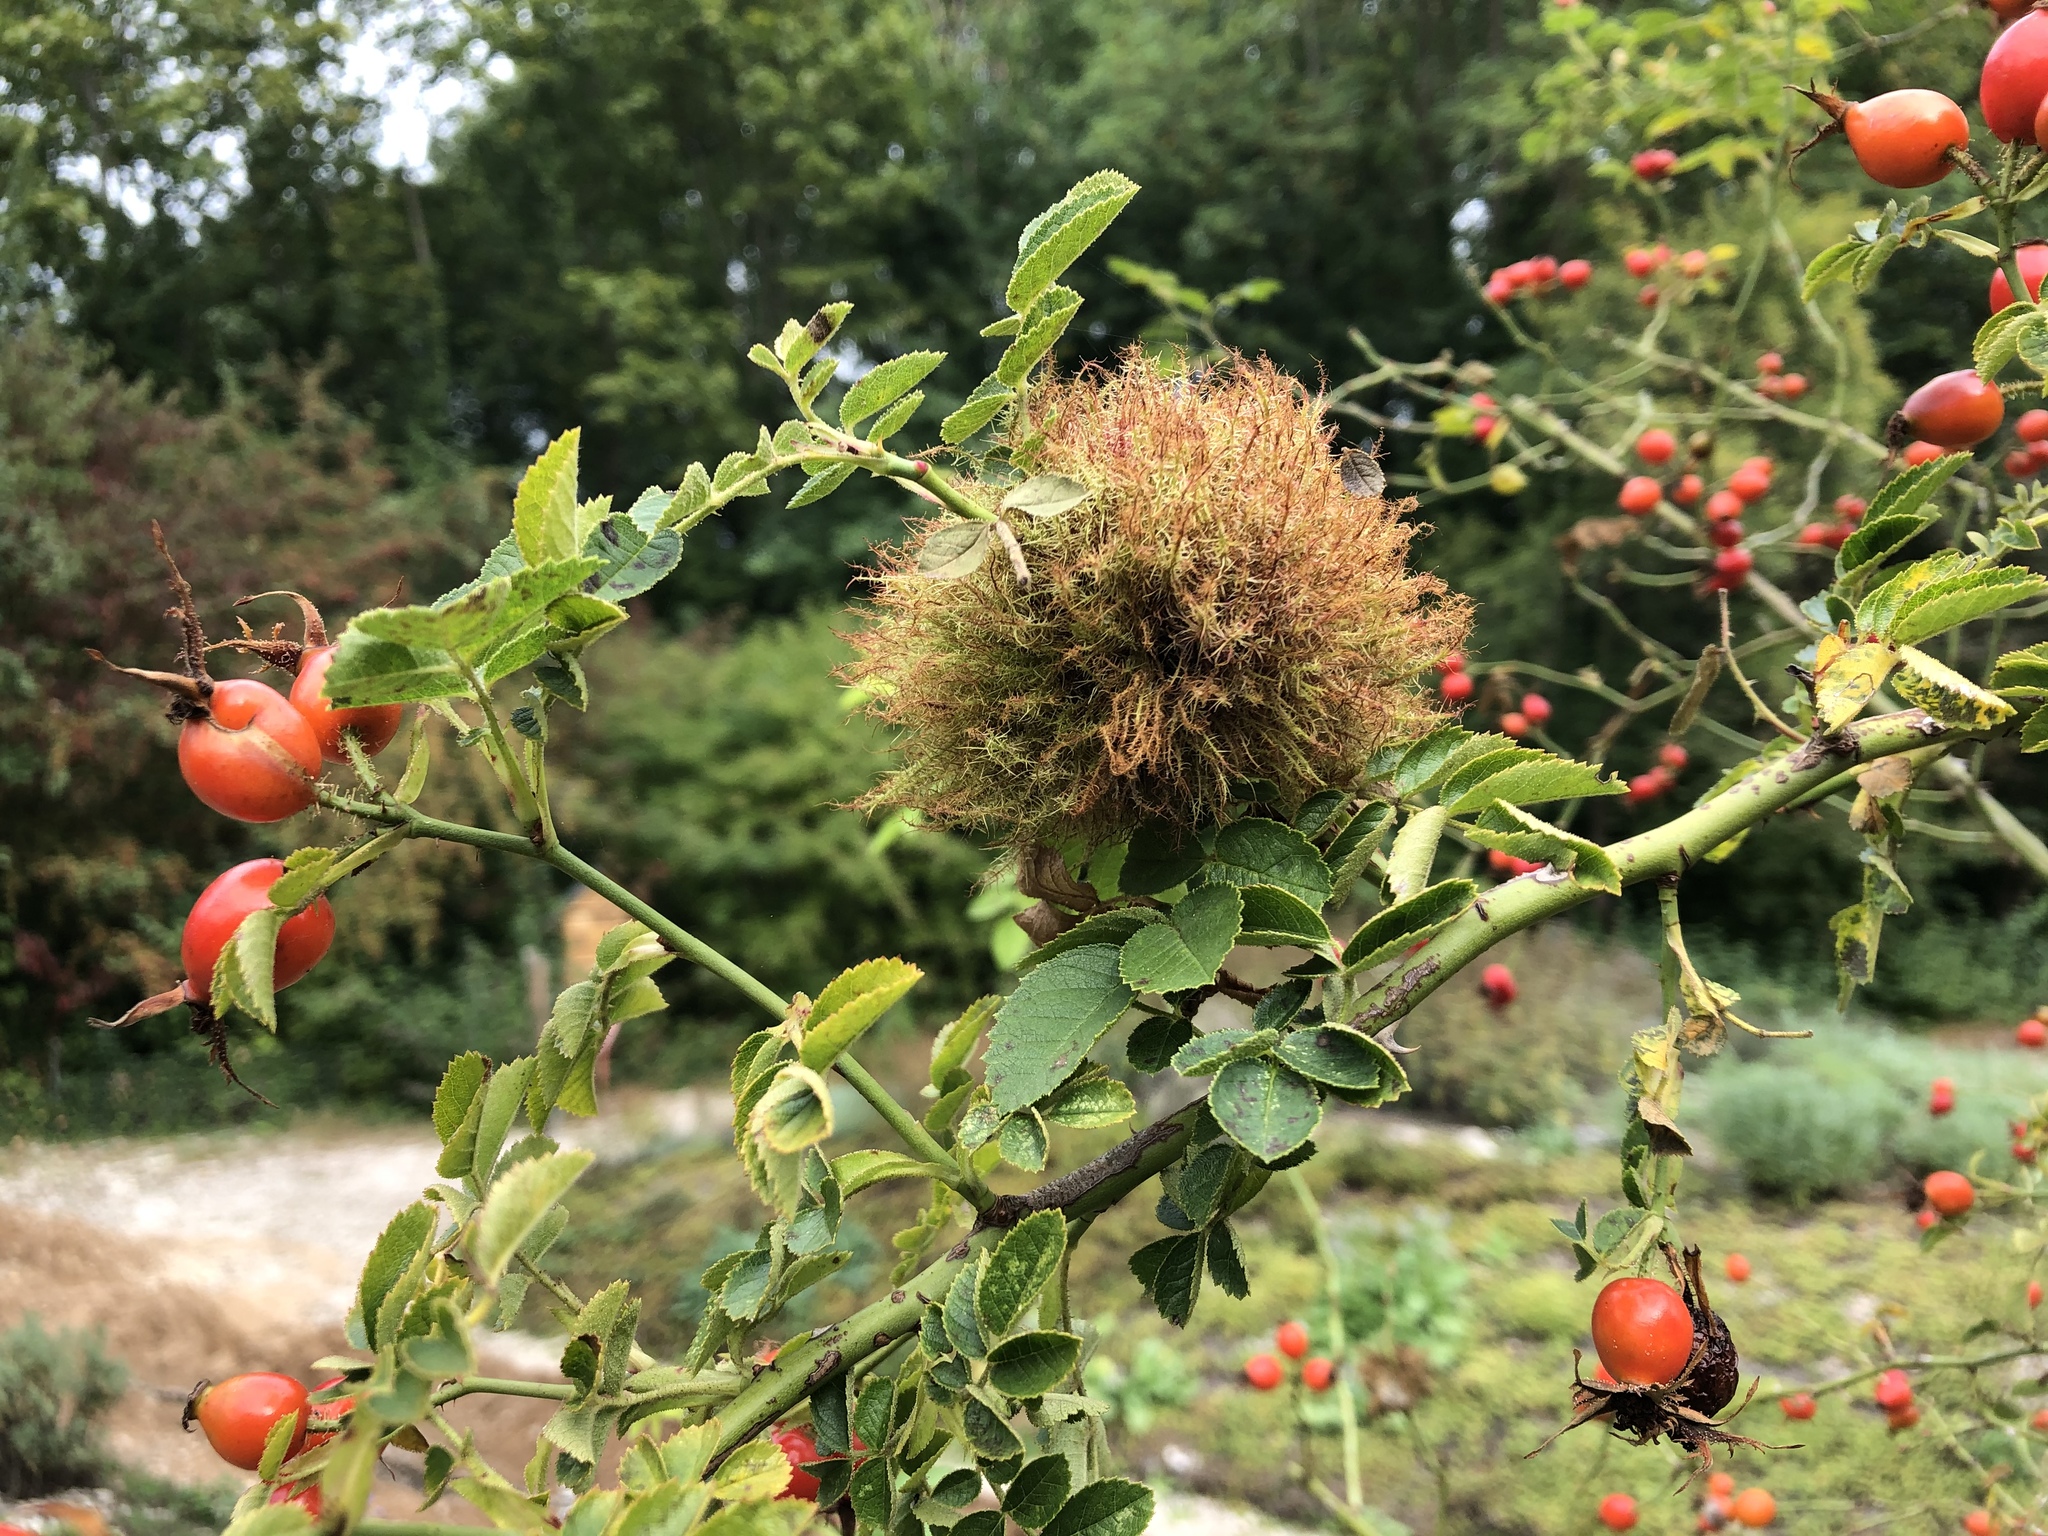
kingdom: Animalia
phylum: Arthropoda
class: Insecta
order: Hymenoptera
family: Cynipidae
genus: Diplolepis
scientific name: Diplolepis rosae
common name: Bedeguar gall
